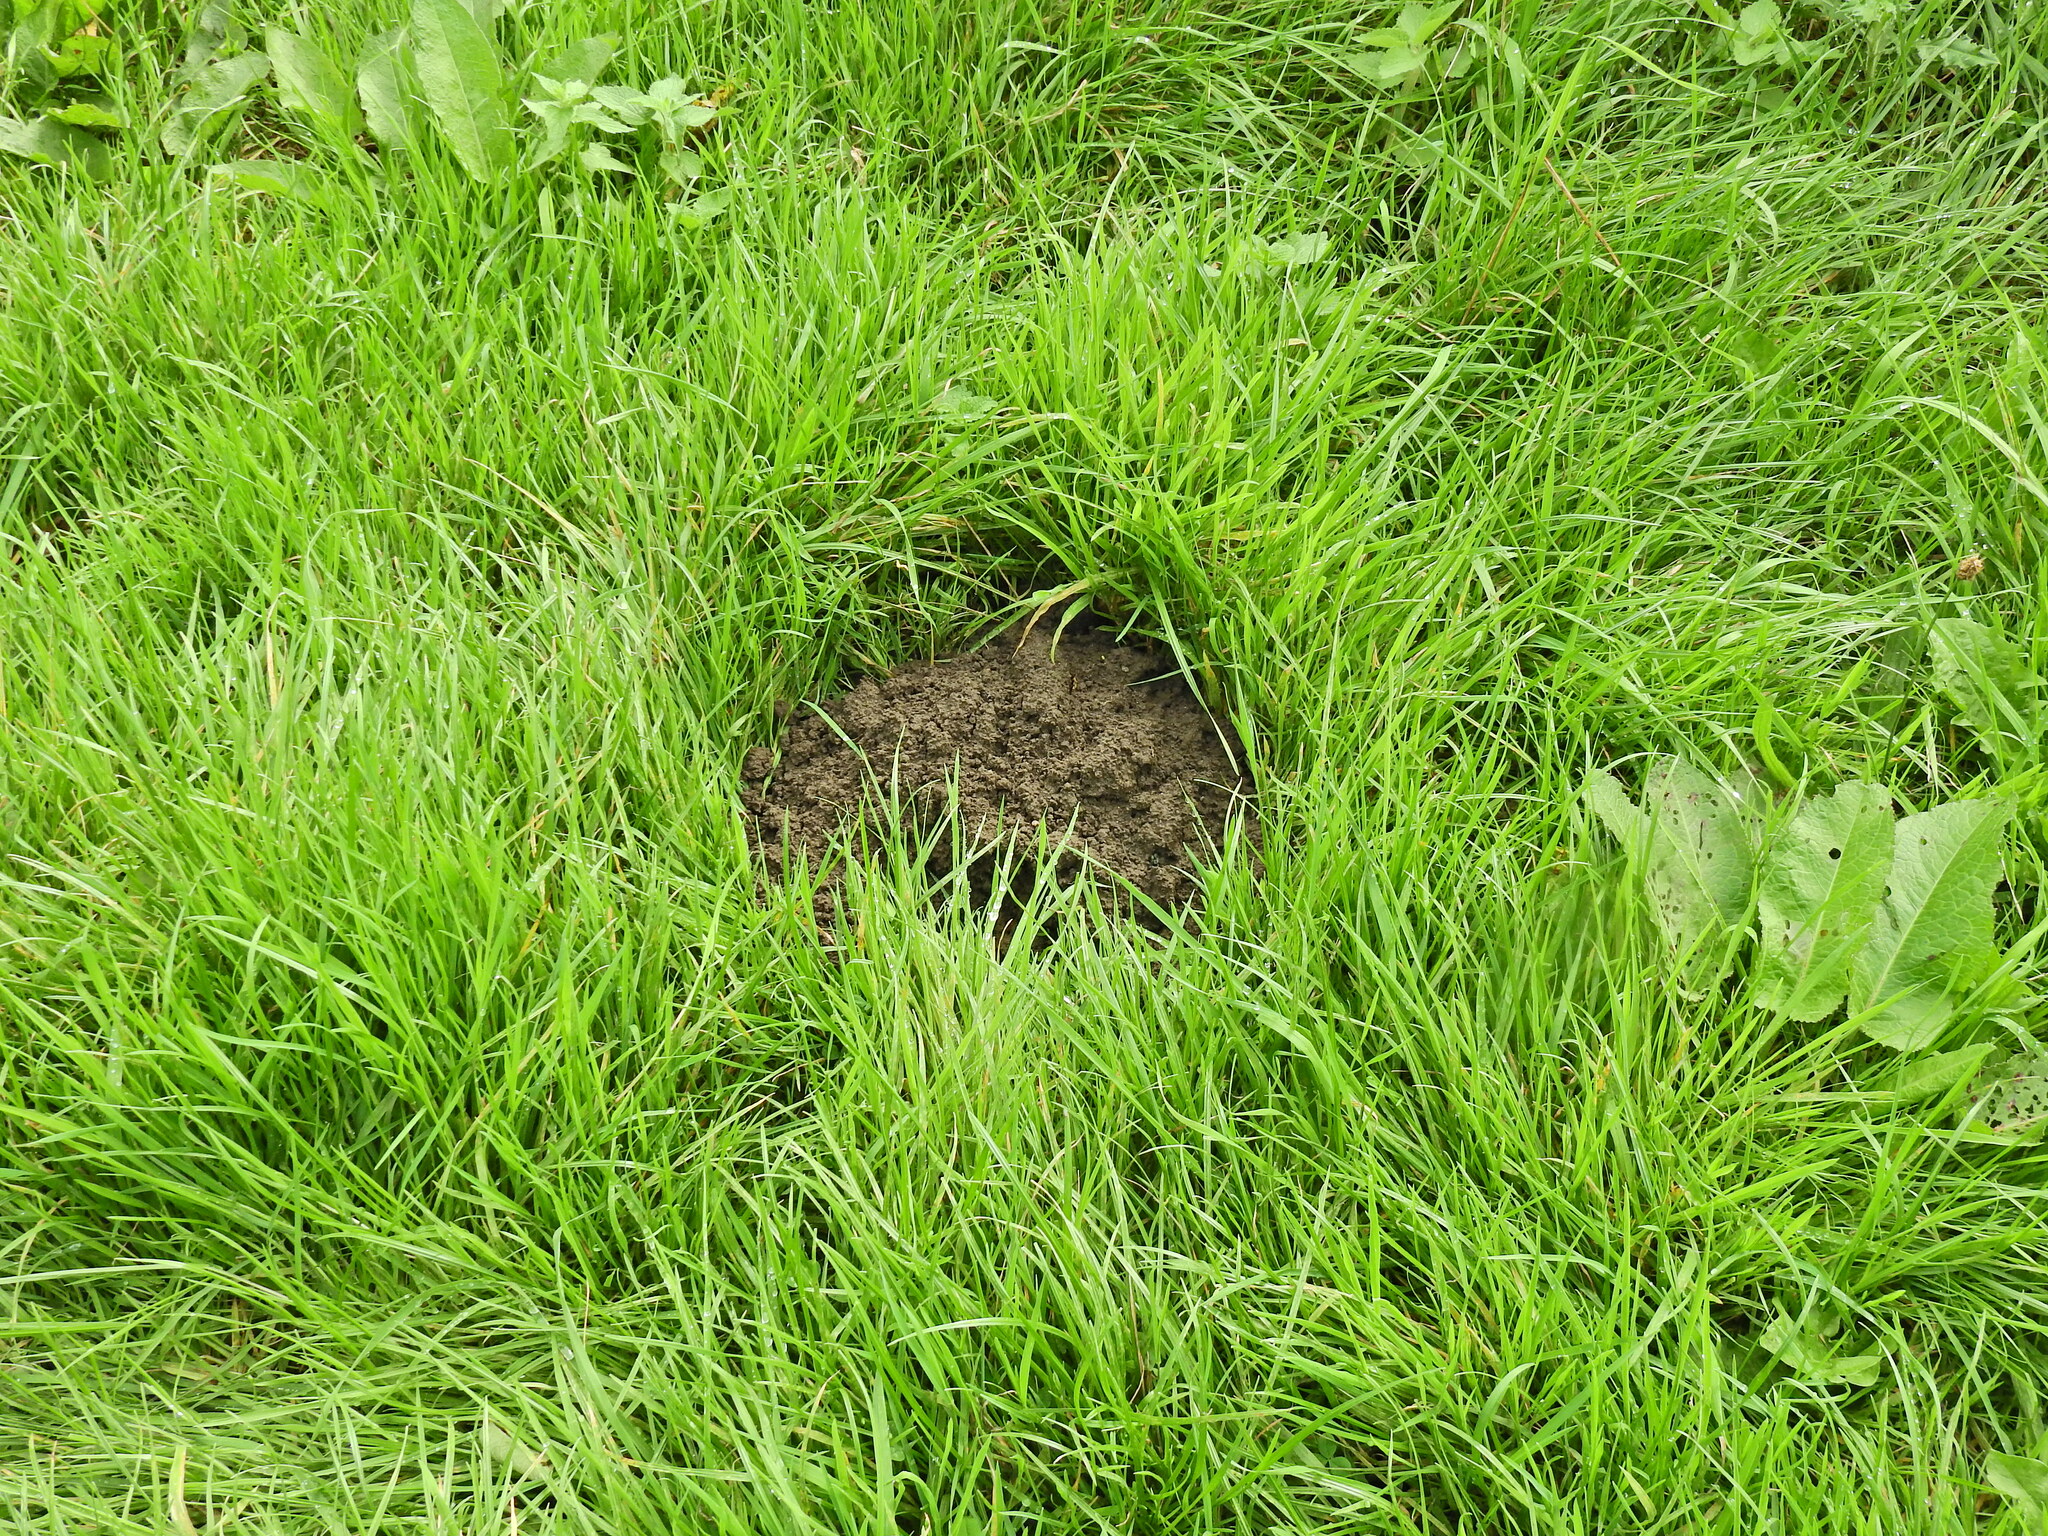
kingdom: Animalia
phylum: Chordata
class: Mammalia
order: Soricomorpha
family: Talpidae
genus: Talpa
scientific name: Talpa europaea
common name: European mole
